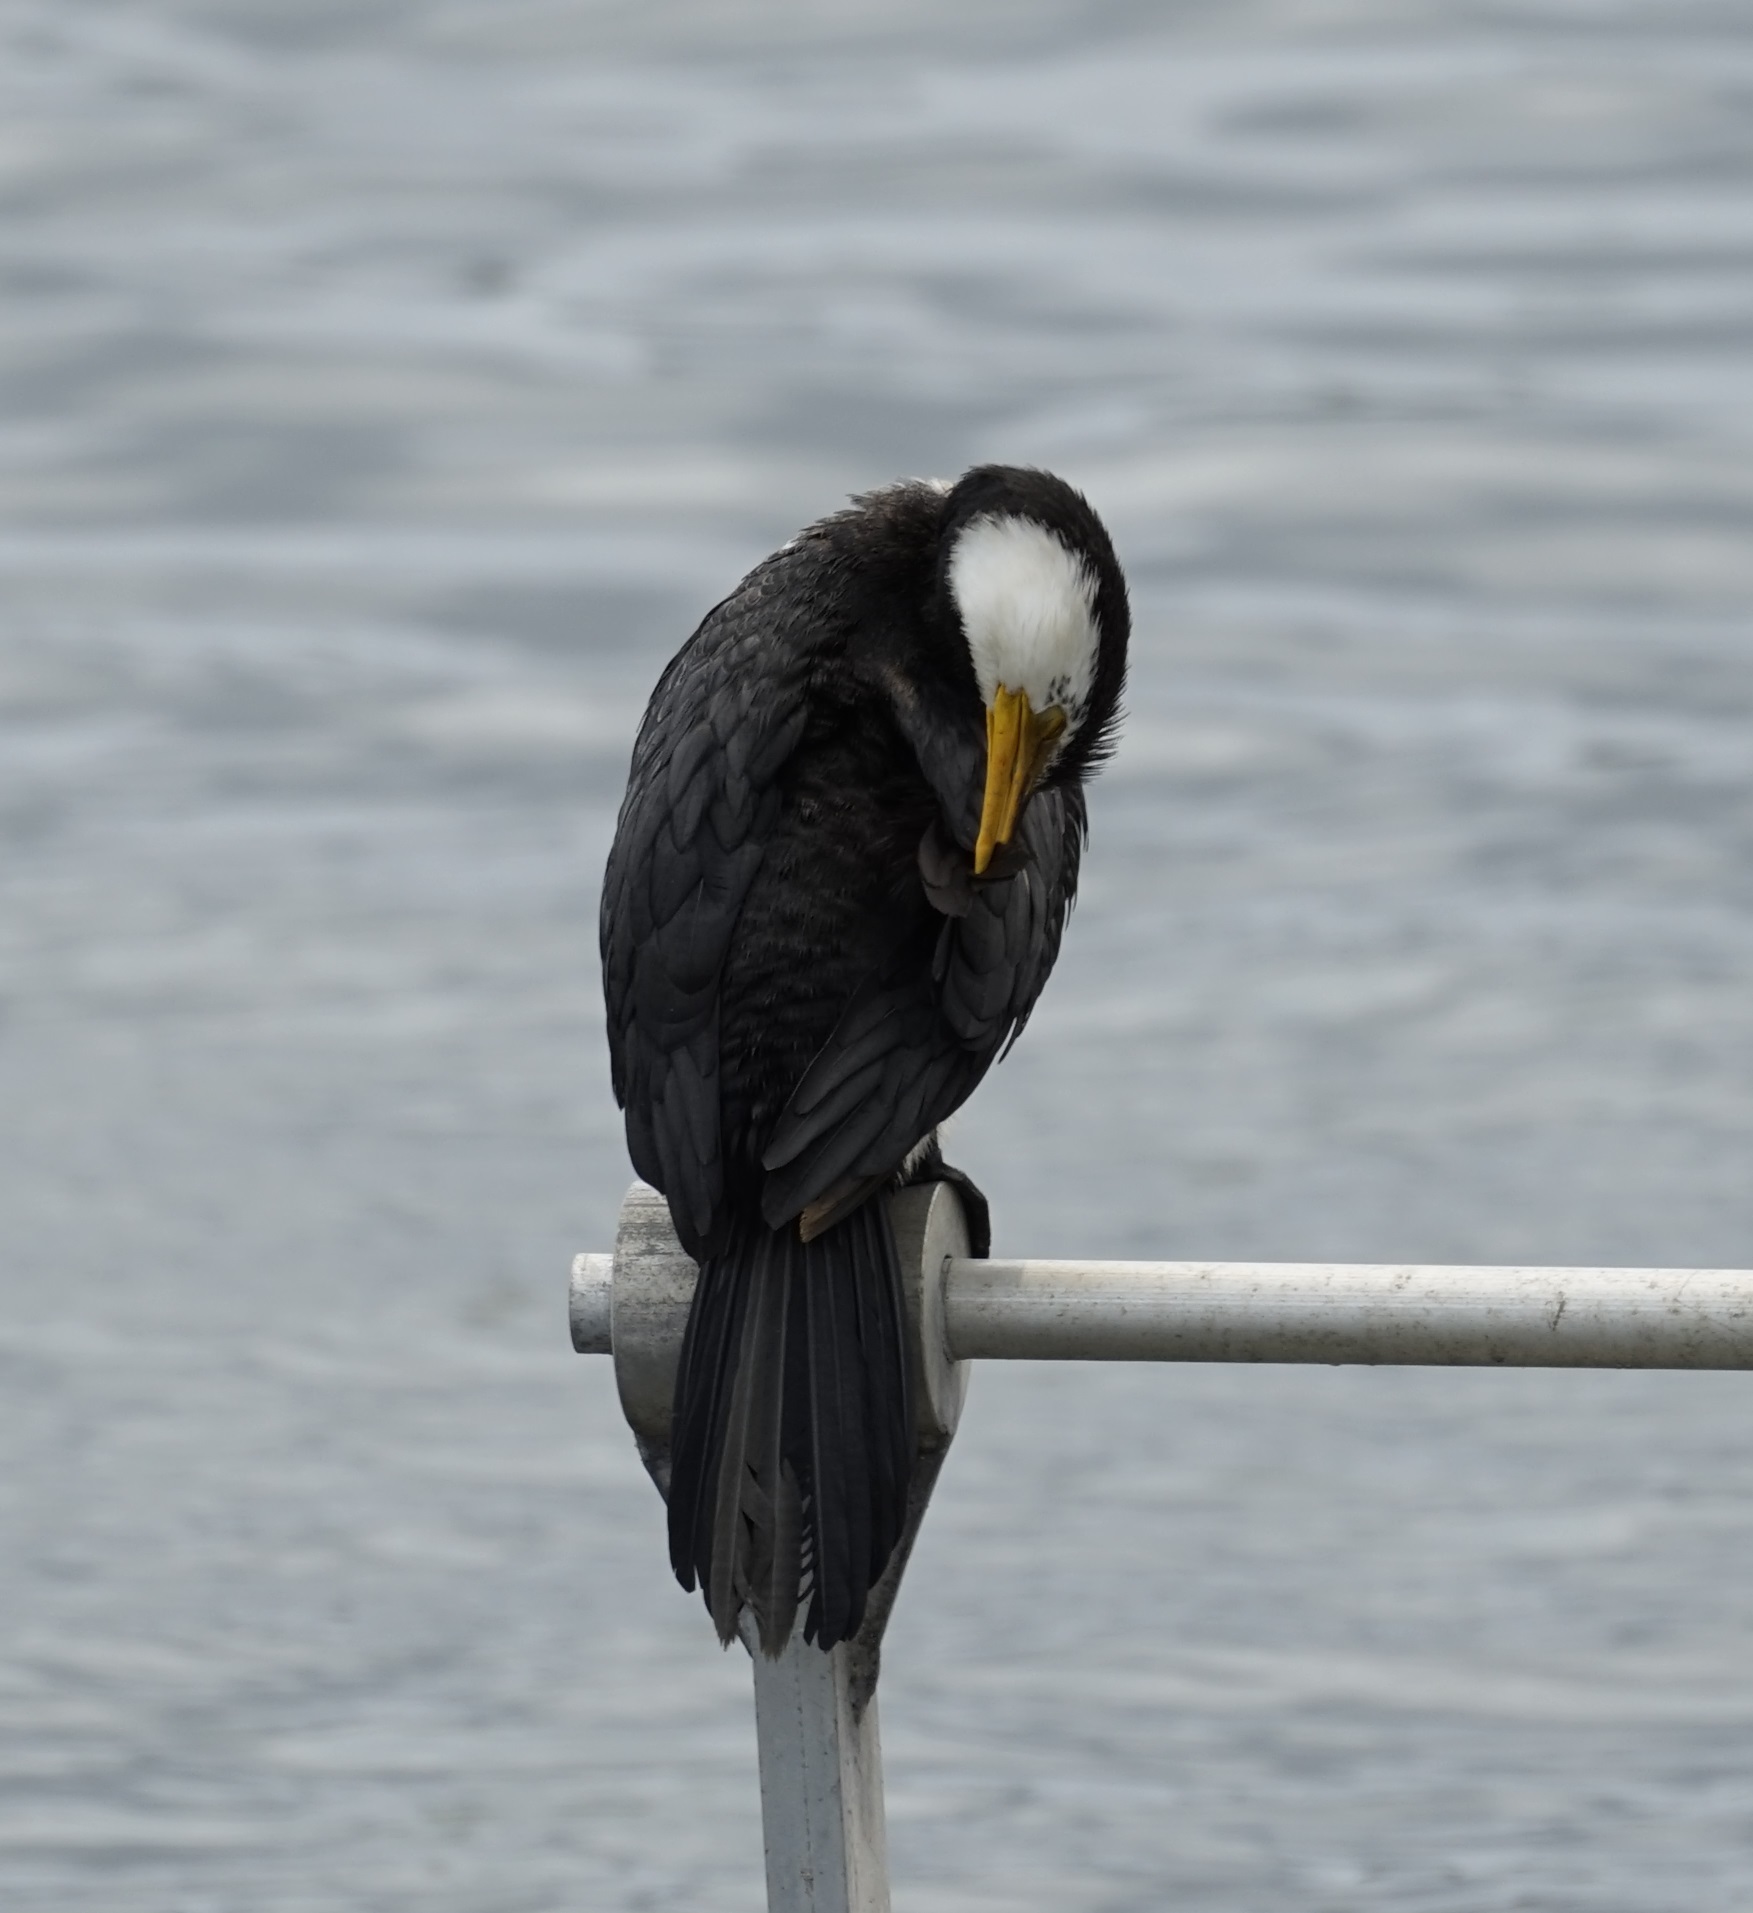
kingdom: Animalia
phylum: Chordata
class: Aves
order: Suliformes
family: Phalacrocoracidae
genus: Microcarbo
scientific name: Microcarbo melanoleucos
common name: Little pied cormorant
